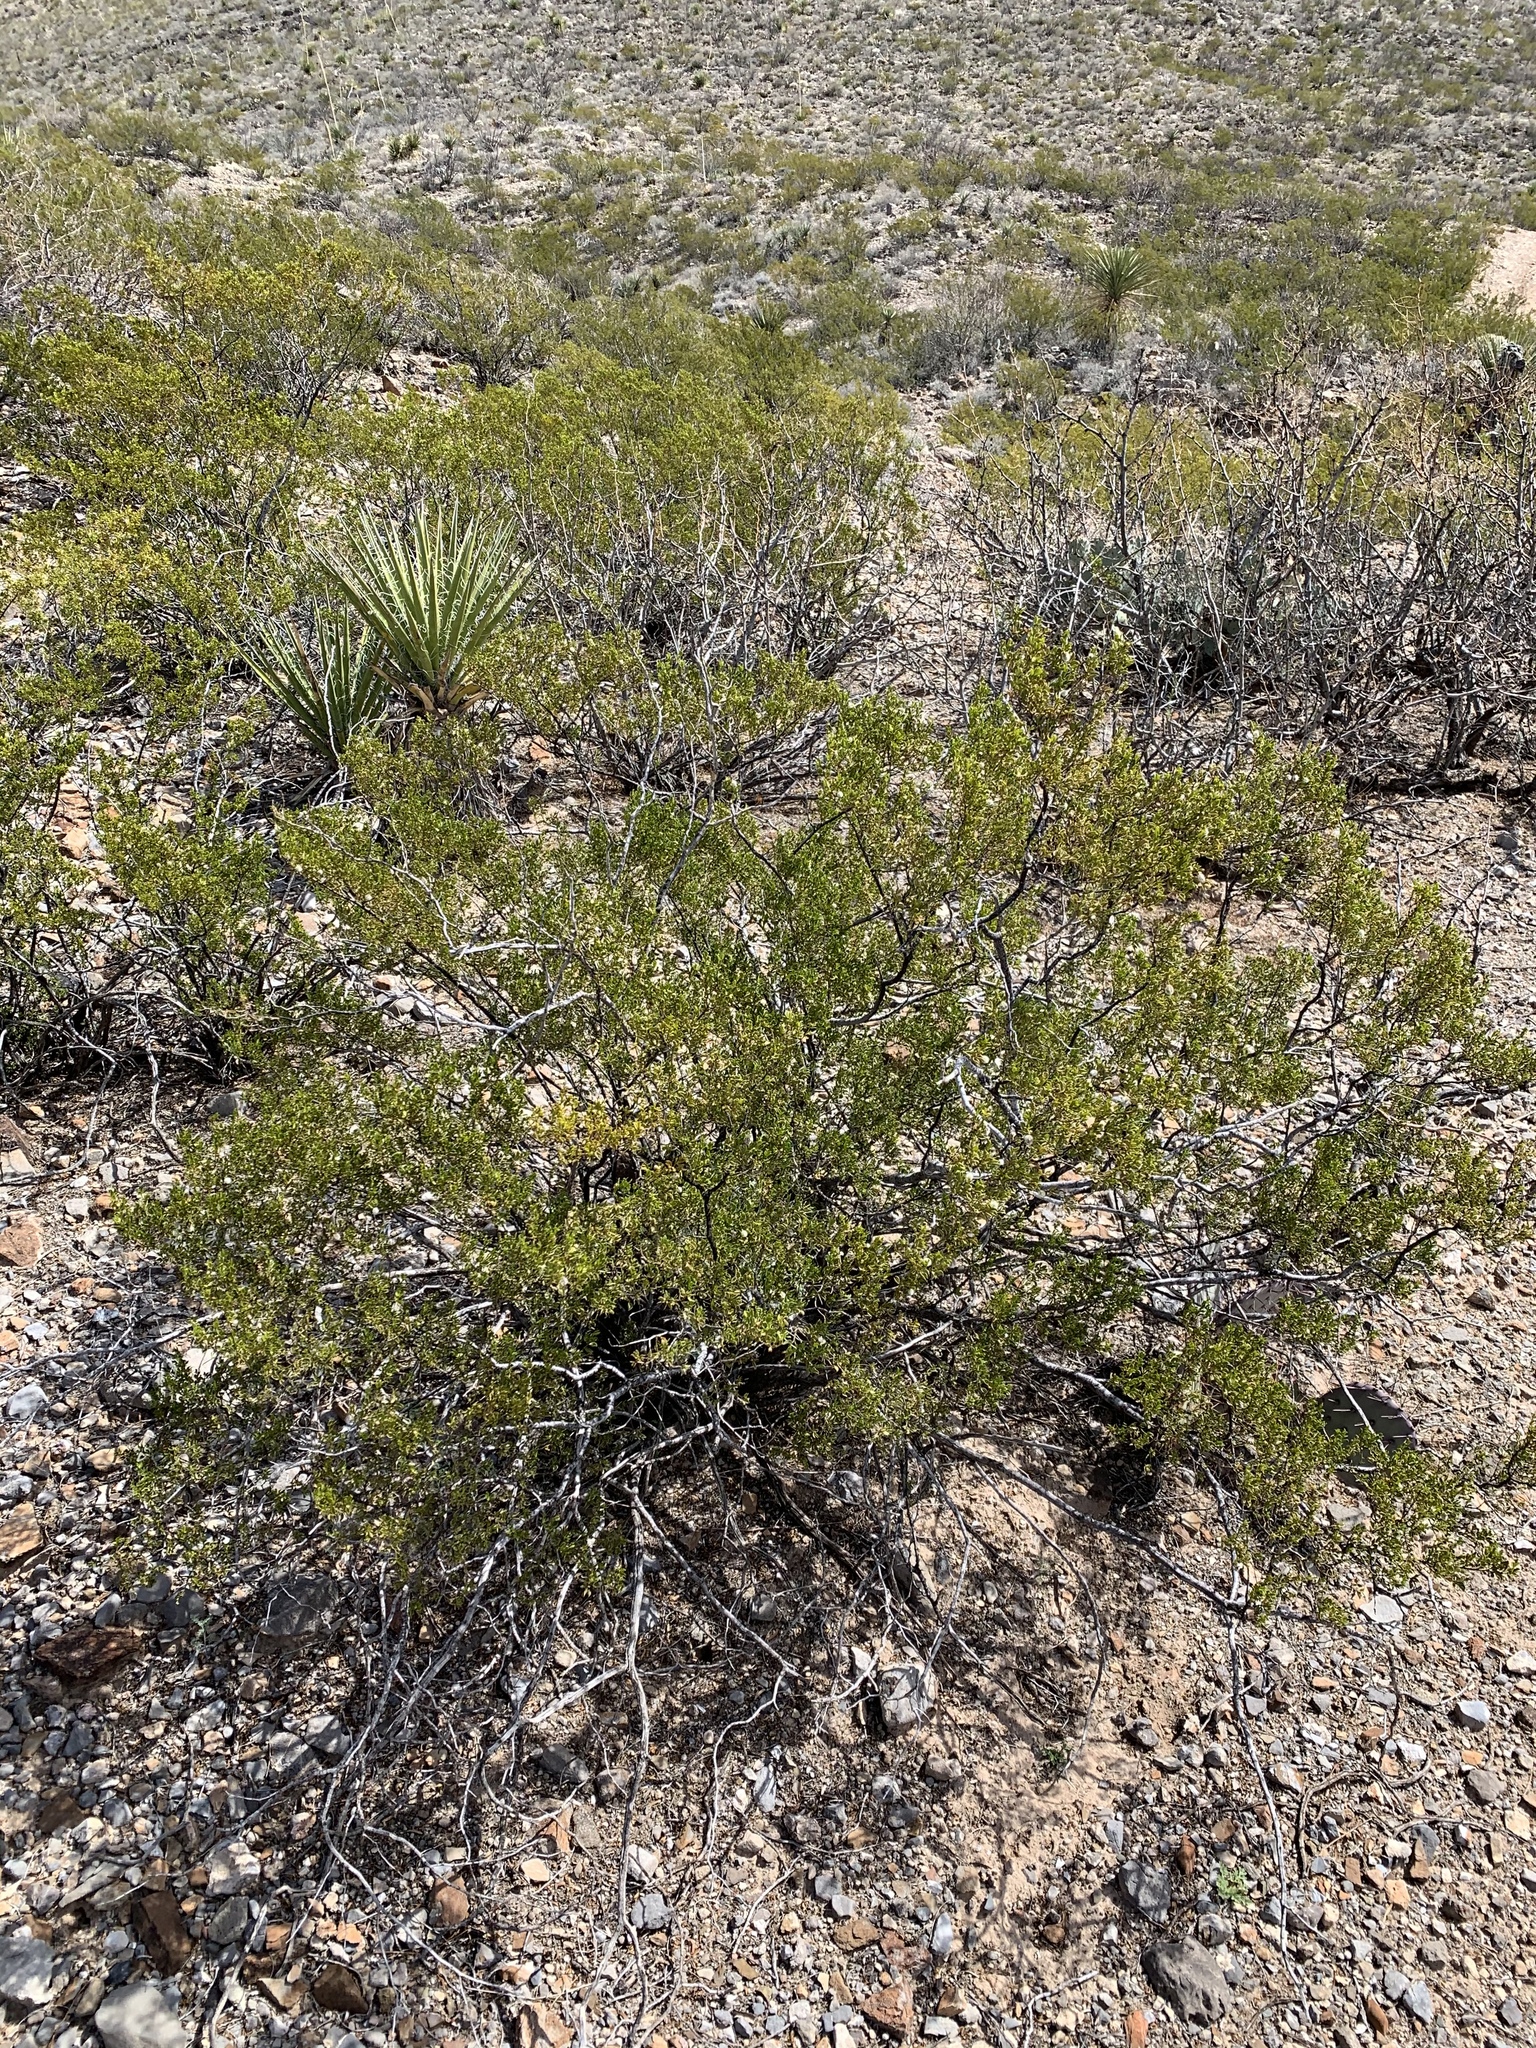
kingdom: Plantae
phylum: Tracheophyta
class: Magnoliopsida
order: Zygophyllales
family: Zygophyllaceae
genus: Larrea
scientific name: Larrea tridentata
